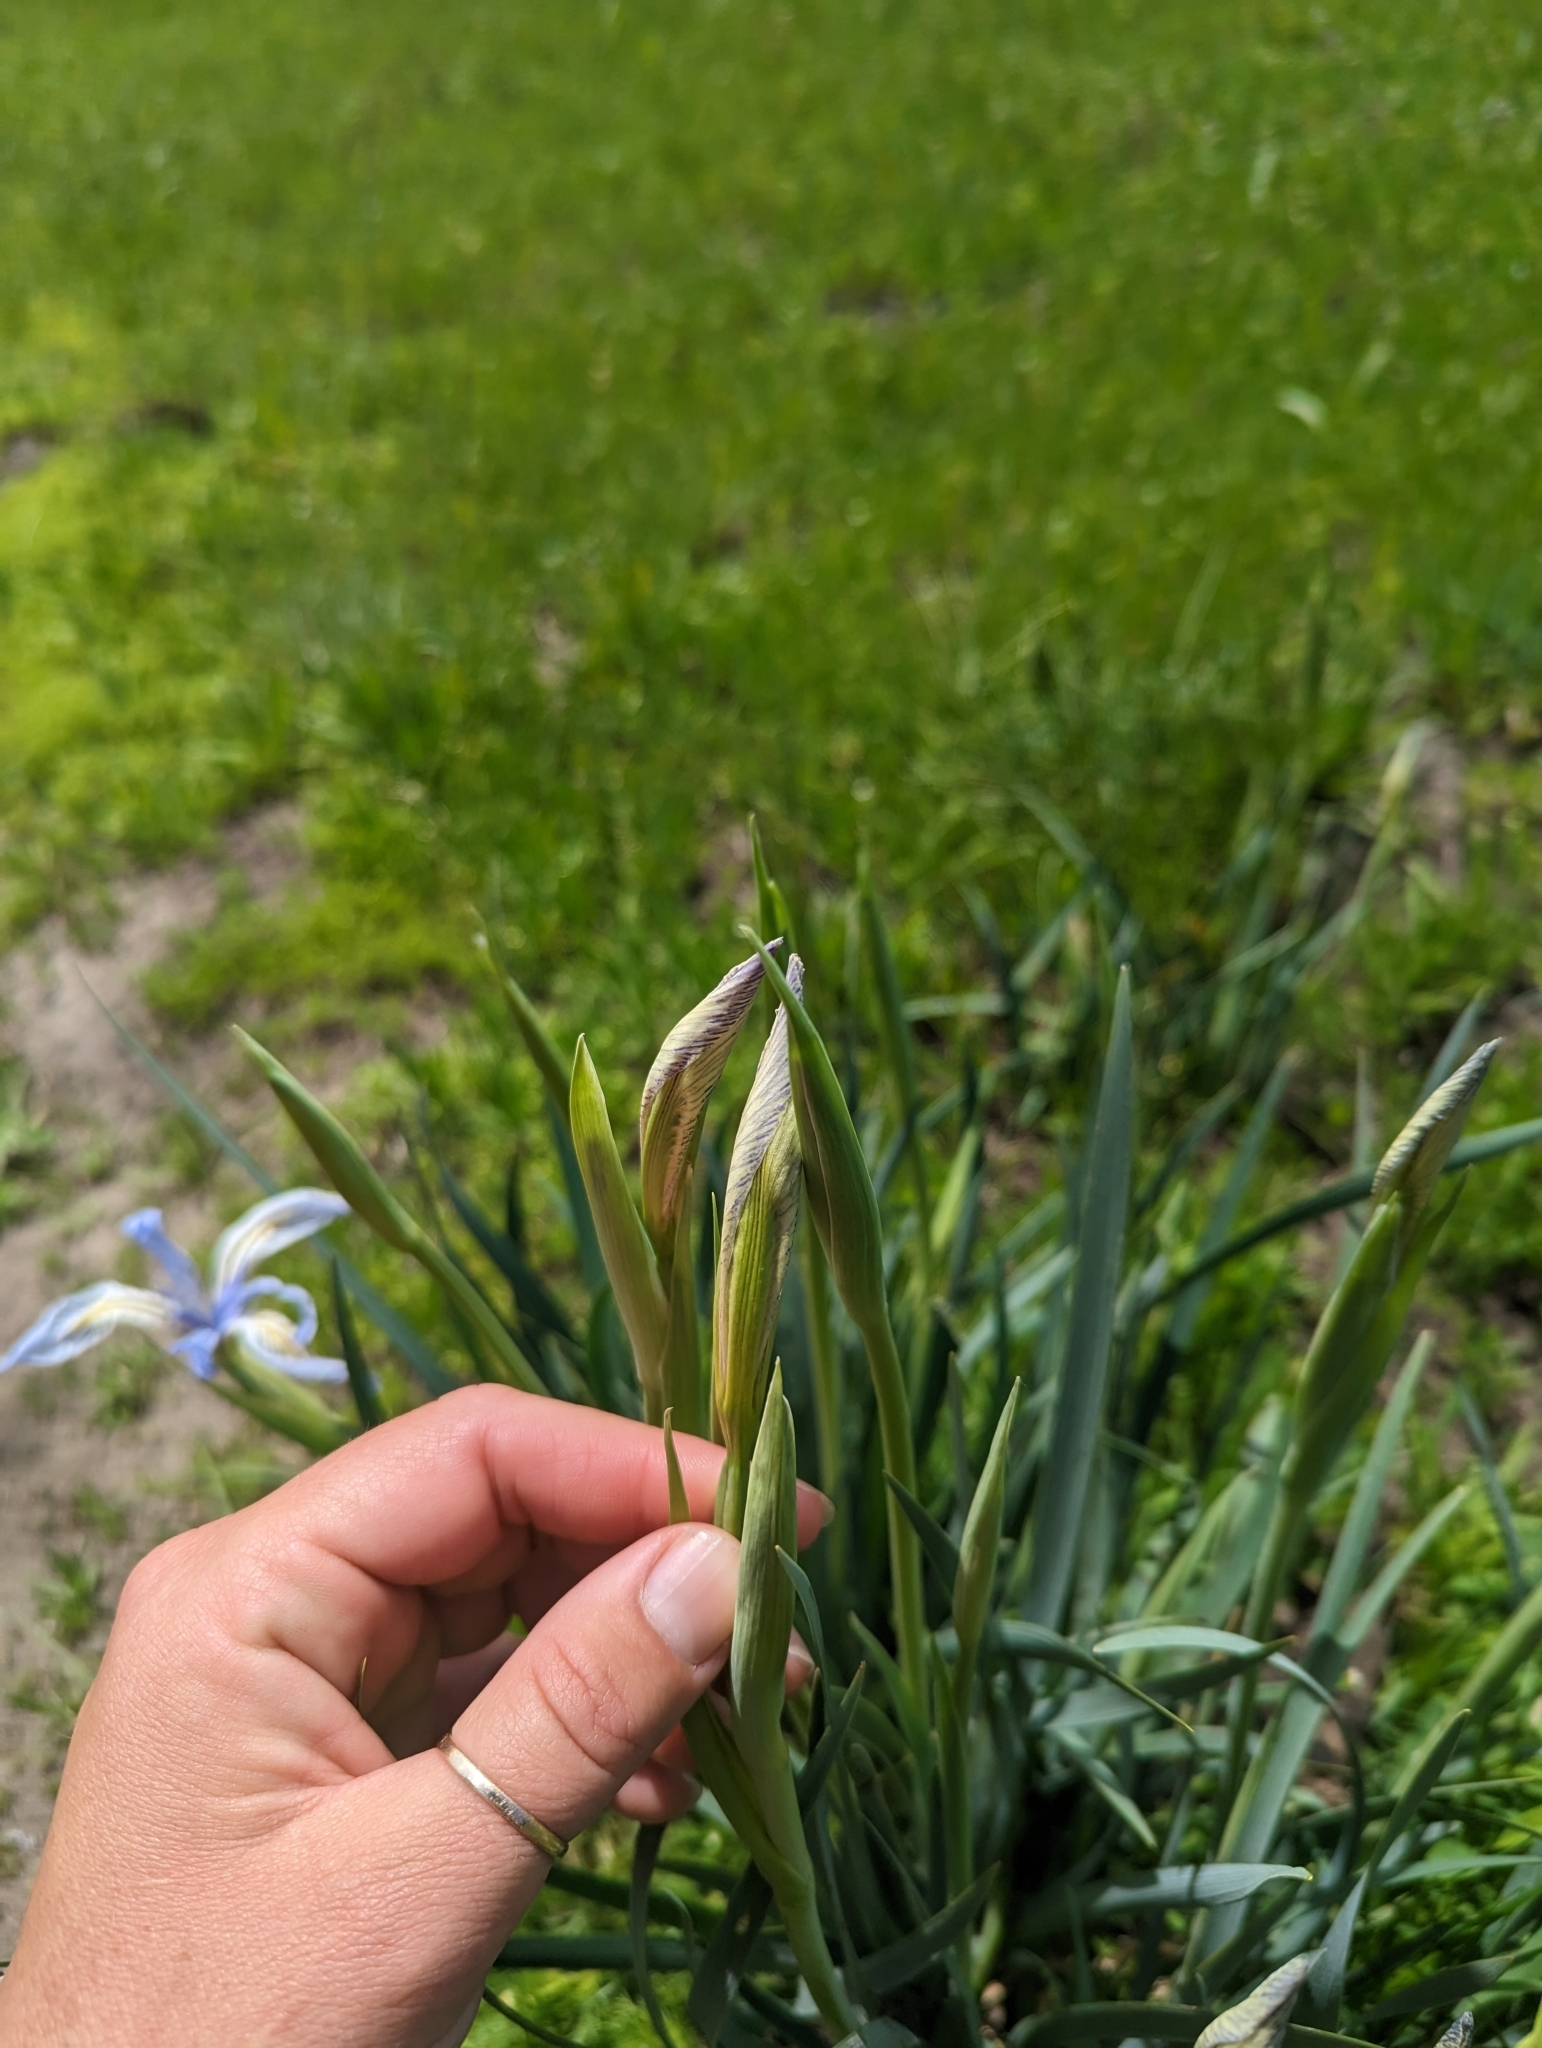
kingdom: Plantae
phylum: Tracheophyta
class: Liliopsida
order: Asparagales
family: Iridaceae
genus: Iris
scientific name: Iris missouriensis
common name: Rocky mountain iris
